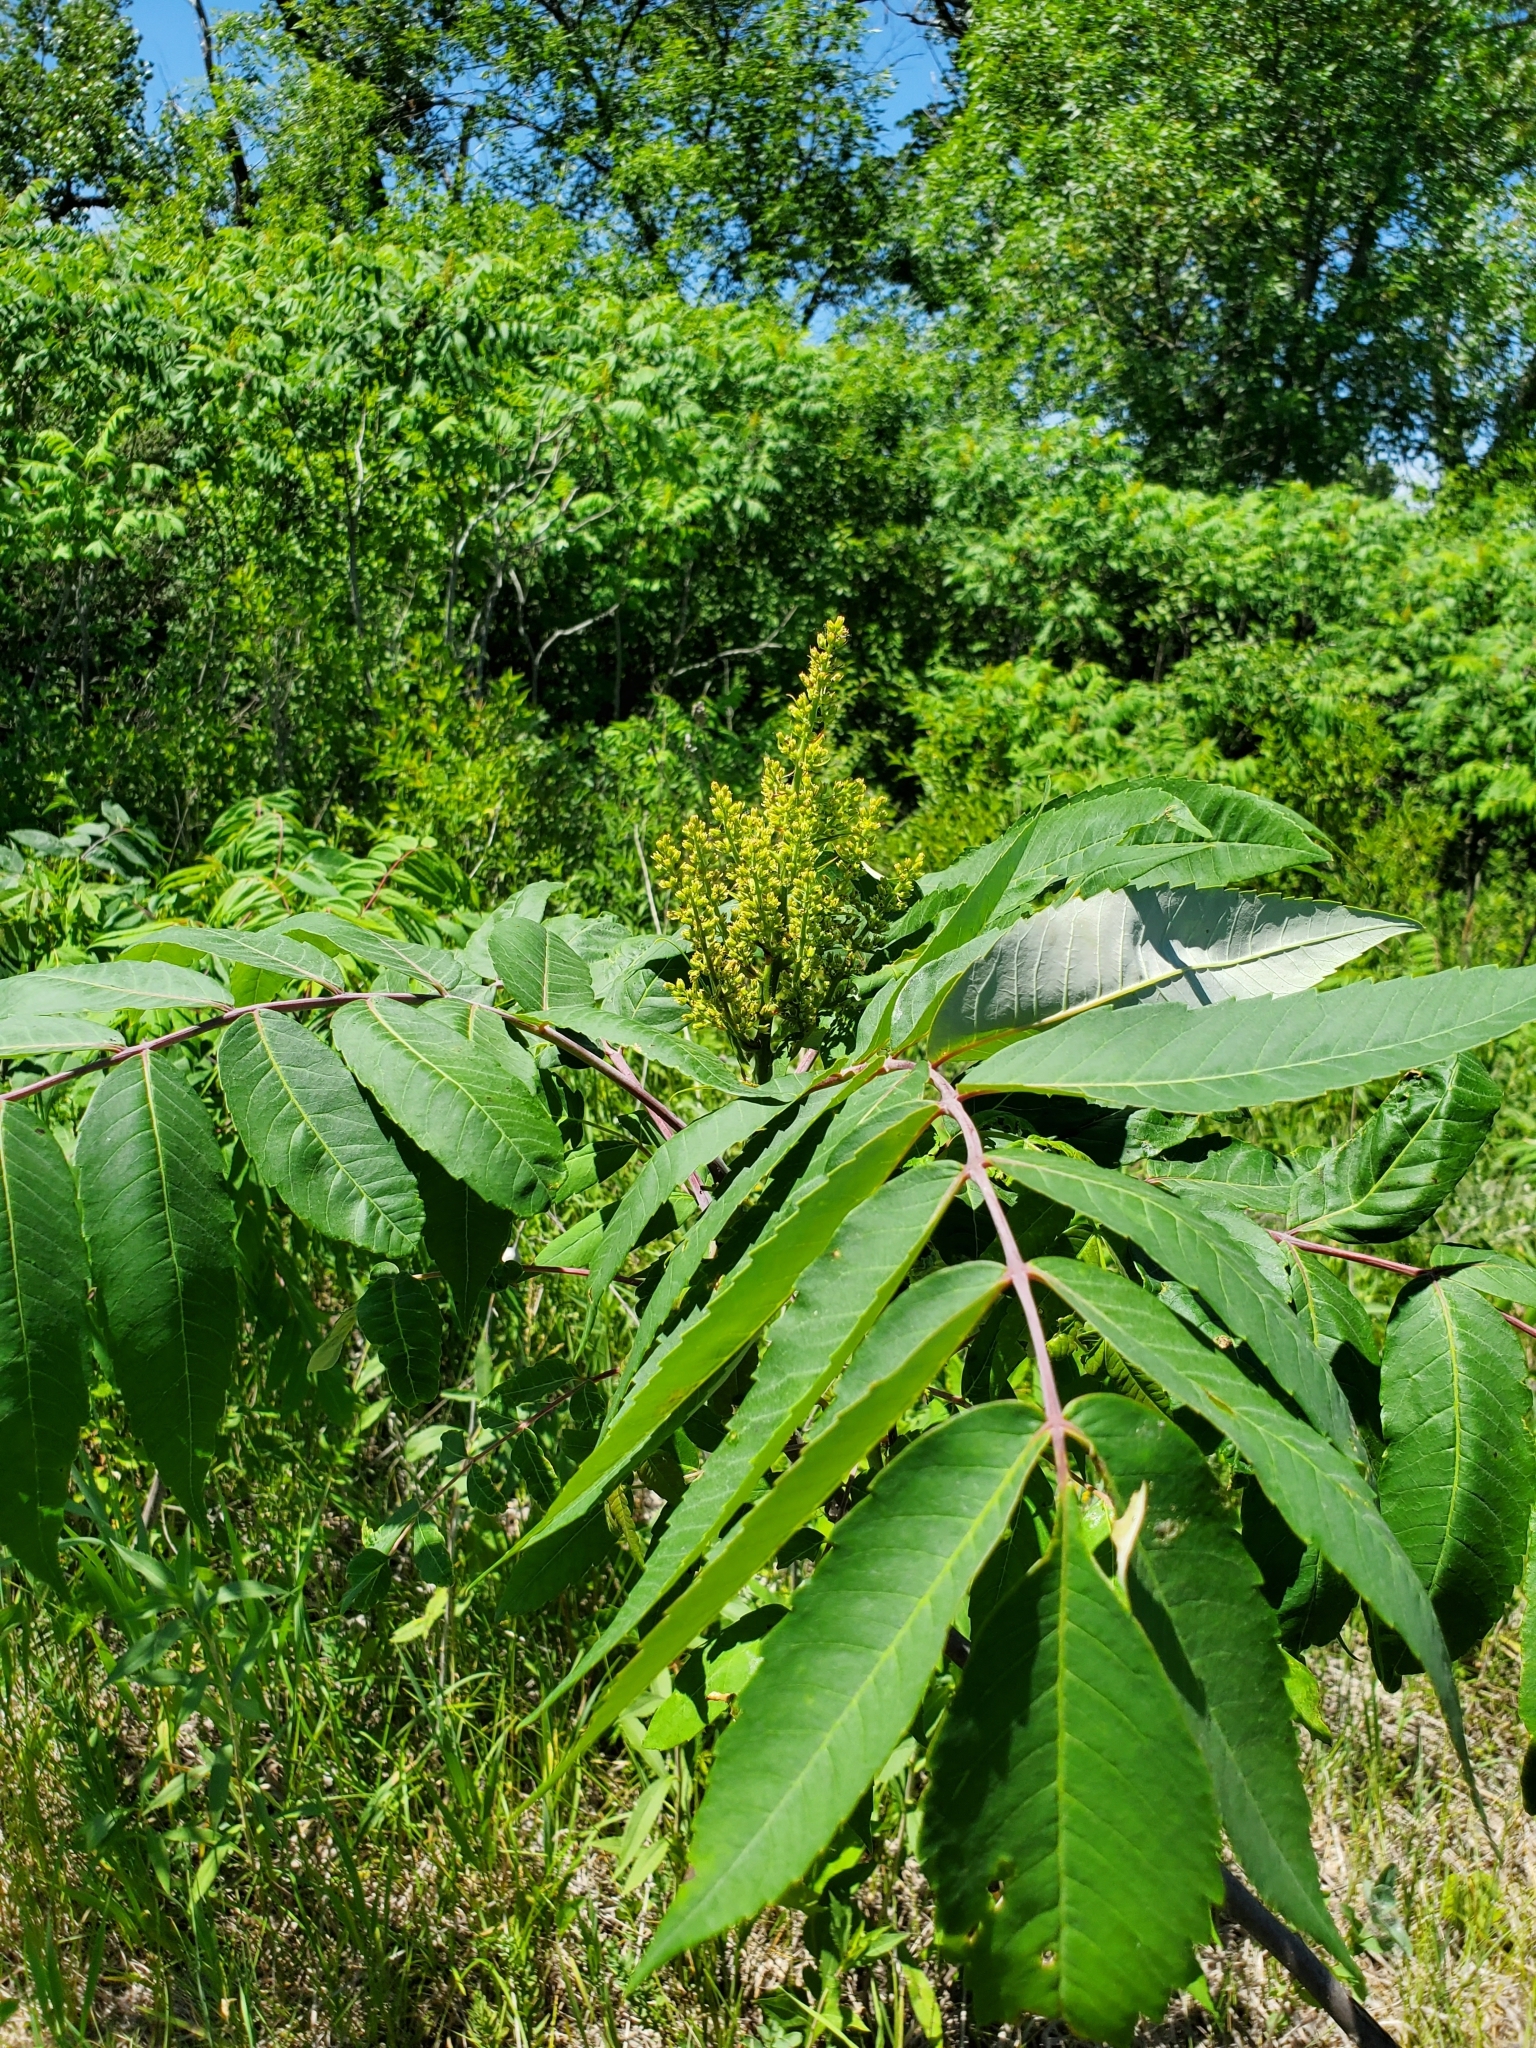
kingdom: Plantae
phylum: Tracheophyta
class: Magnoliopsida
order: Sapindales
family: Anacardiaceae
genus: Rhus
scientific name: Rhus glabra
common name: Scarlet sumac
